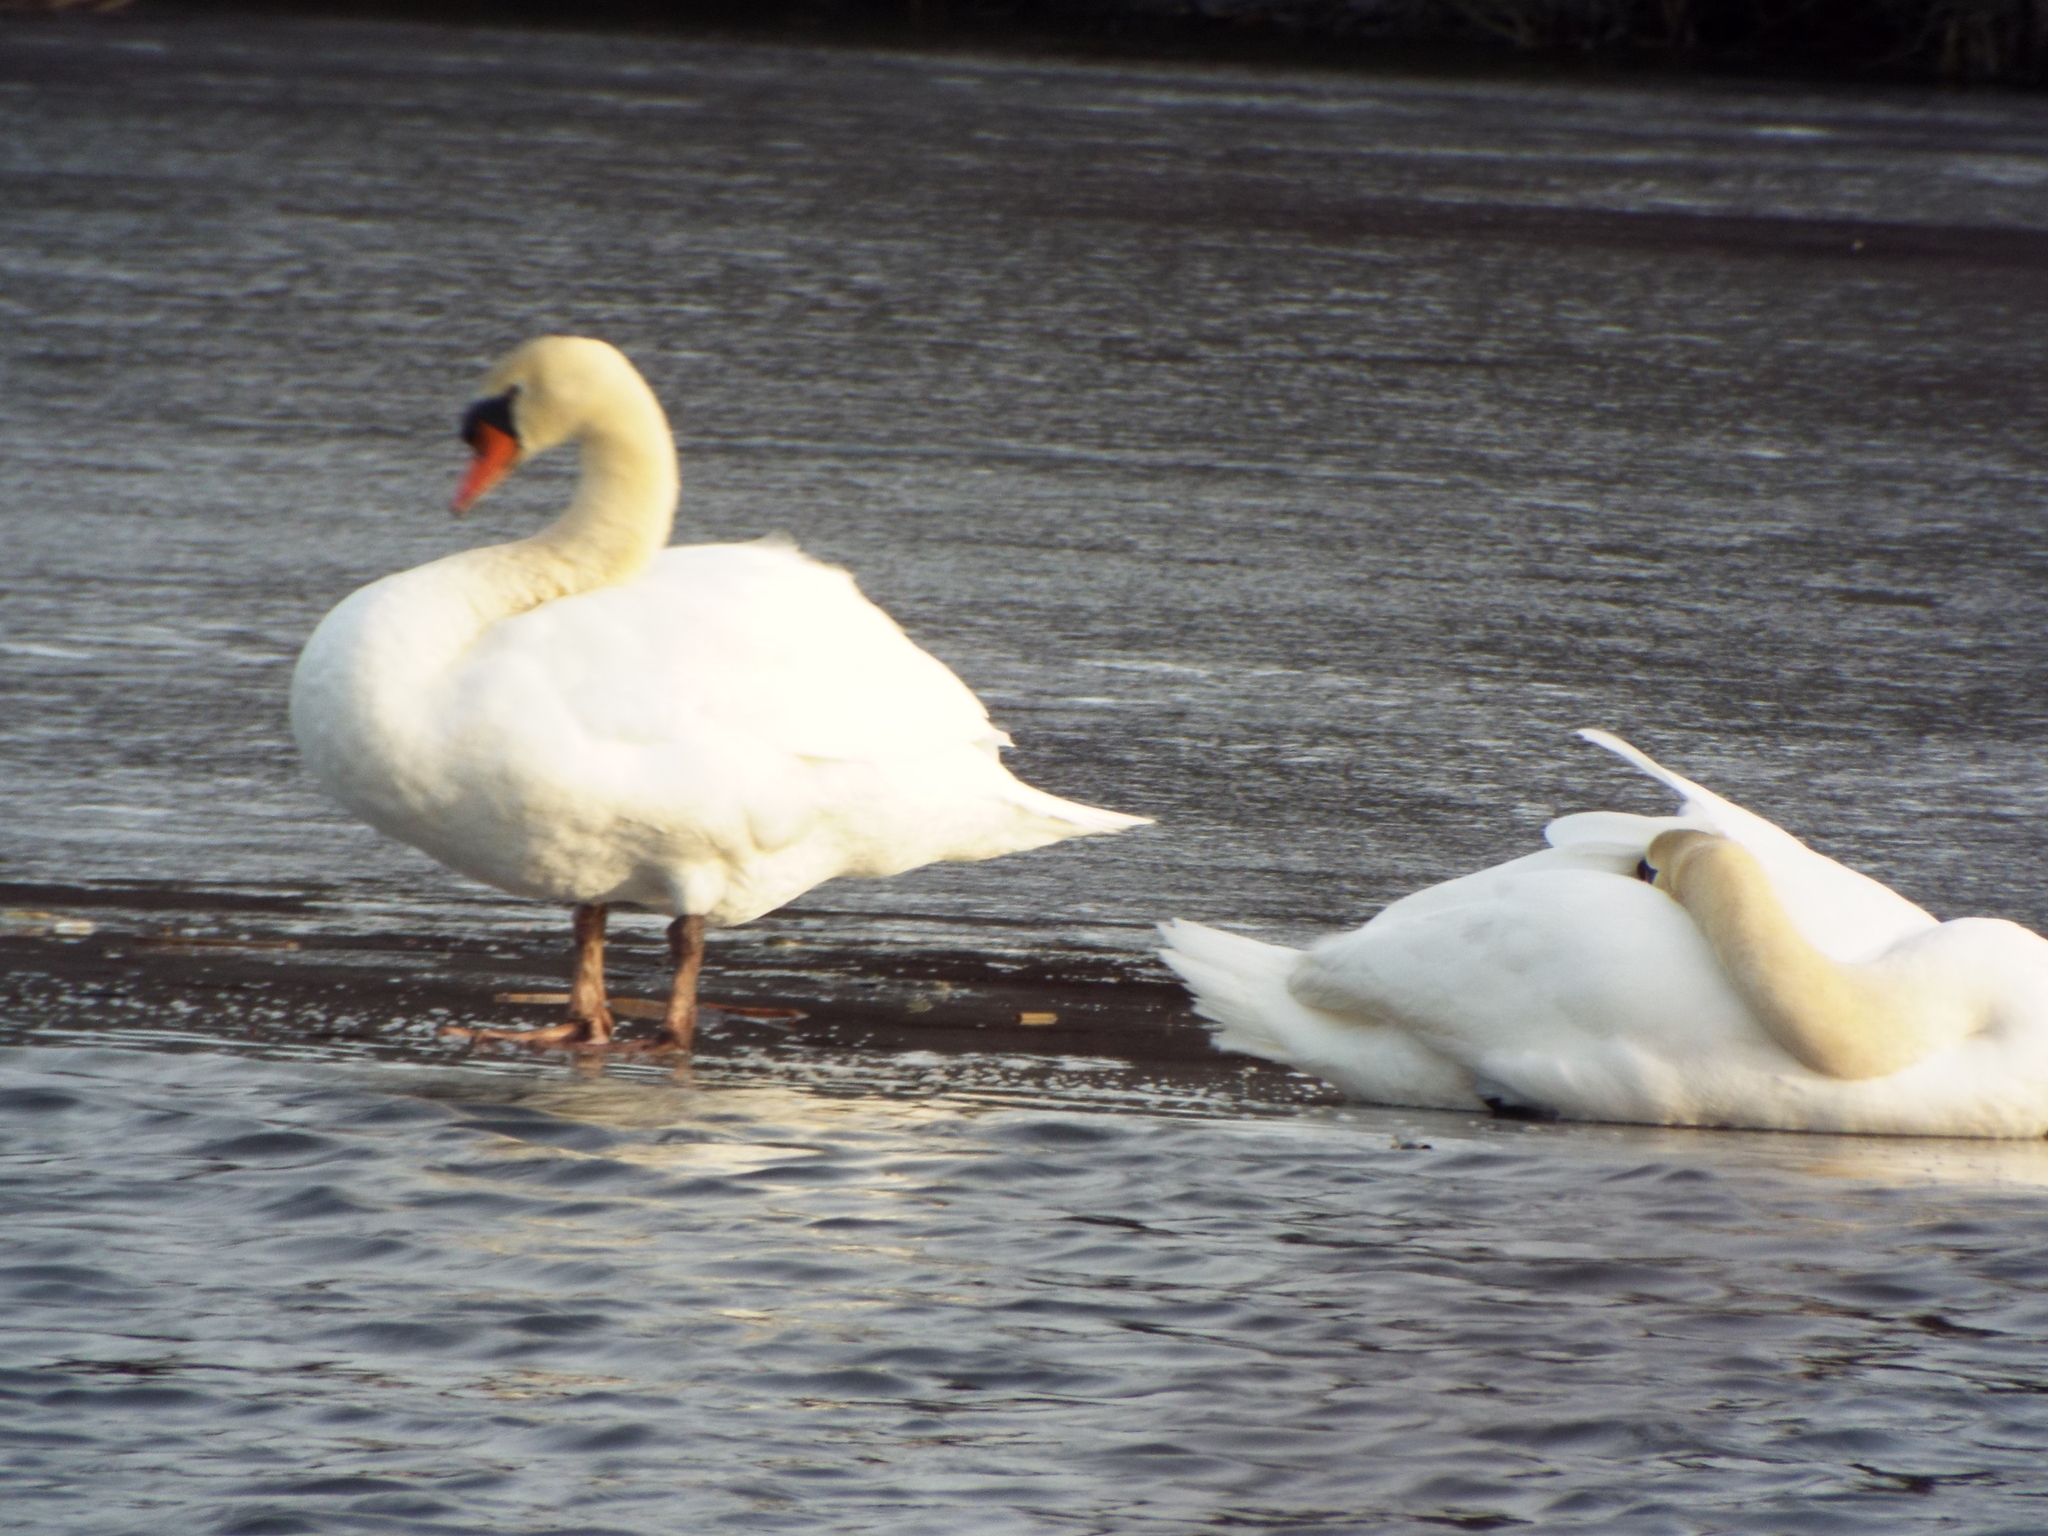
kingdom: Animalia
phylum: Chordata
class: Aves
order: Anseriformes
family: Anatidae
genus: Cygnus
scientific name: Cygnus olor
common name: Mute swan
